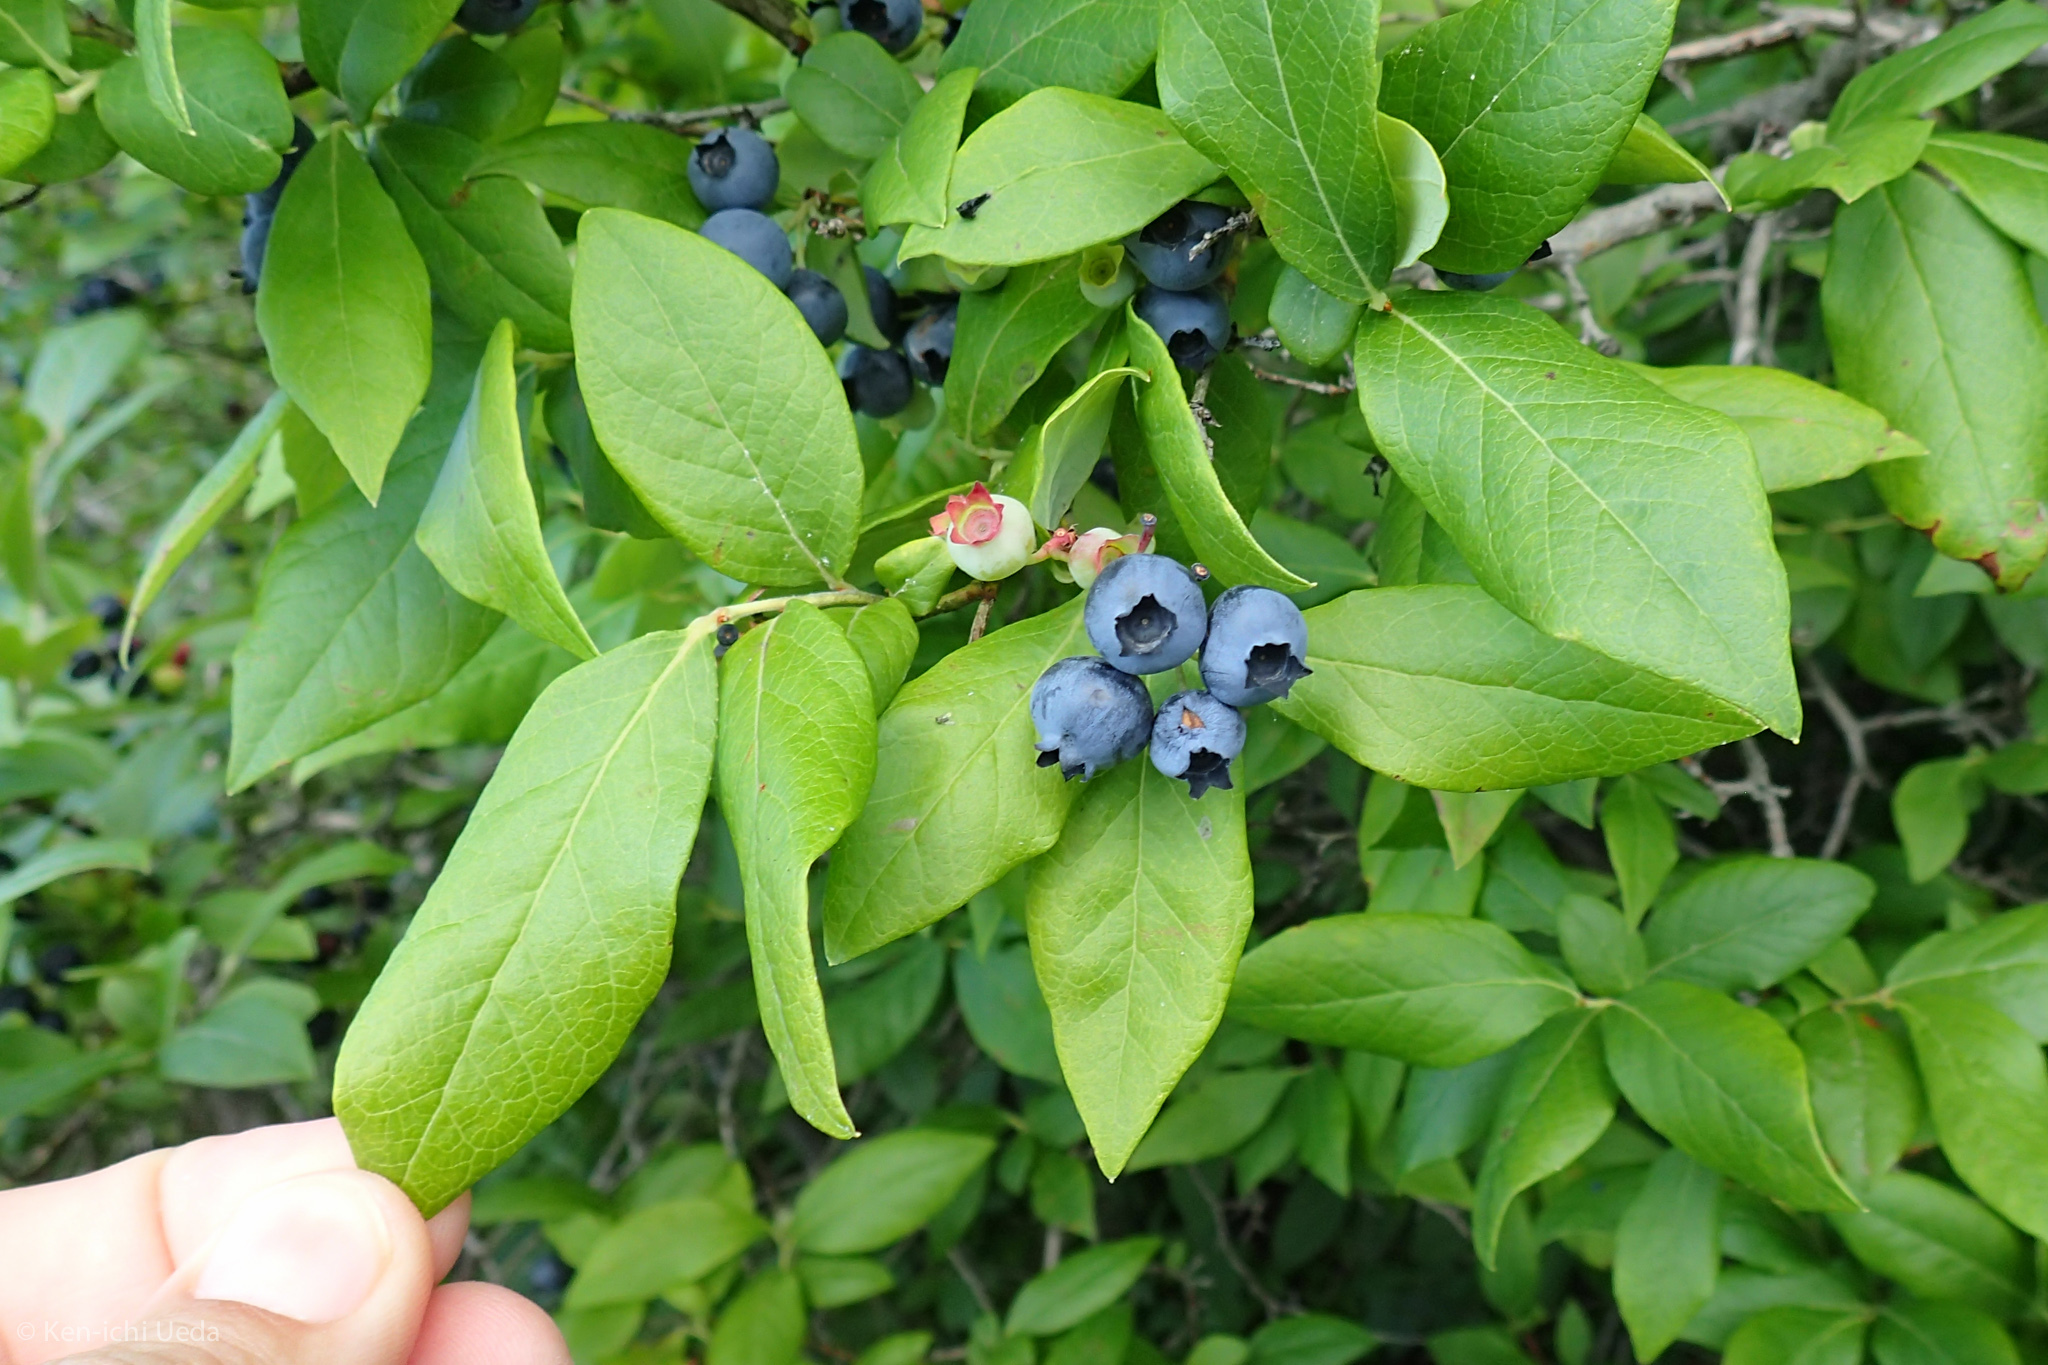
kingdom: Plantae
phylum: Tracheophyta
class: Magnoliopsida
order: Ericales
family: Ericaceae
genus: Vaccinium
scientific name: Vaccinium corymbosum
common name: Blueberry
